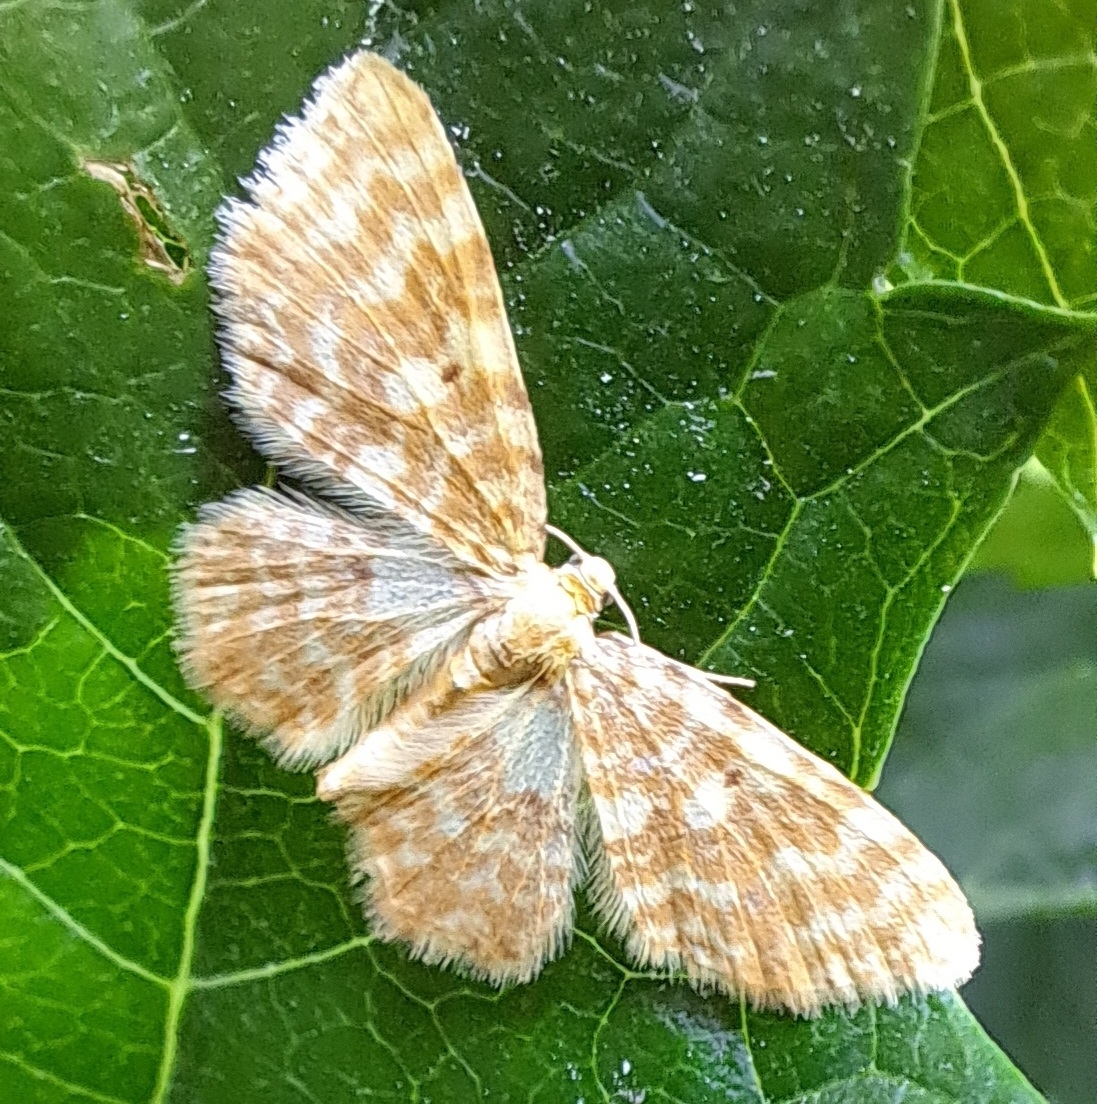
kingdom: Animalia
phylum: Arthropoda
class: Insecta
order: Lepidoptera
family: Geometridae
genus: Hydrelia
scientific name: Hydrelia flammeolaria
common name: Small yellow wave
